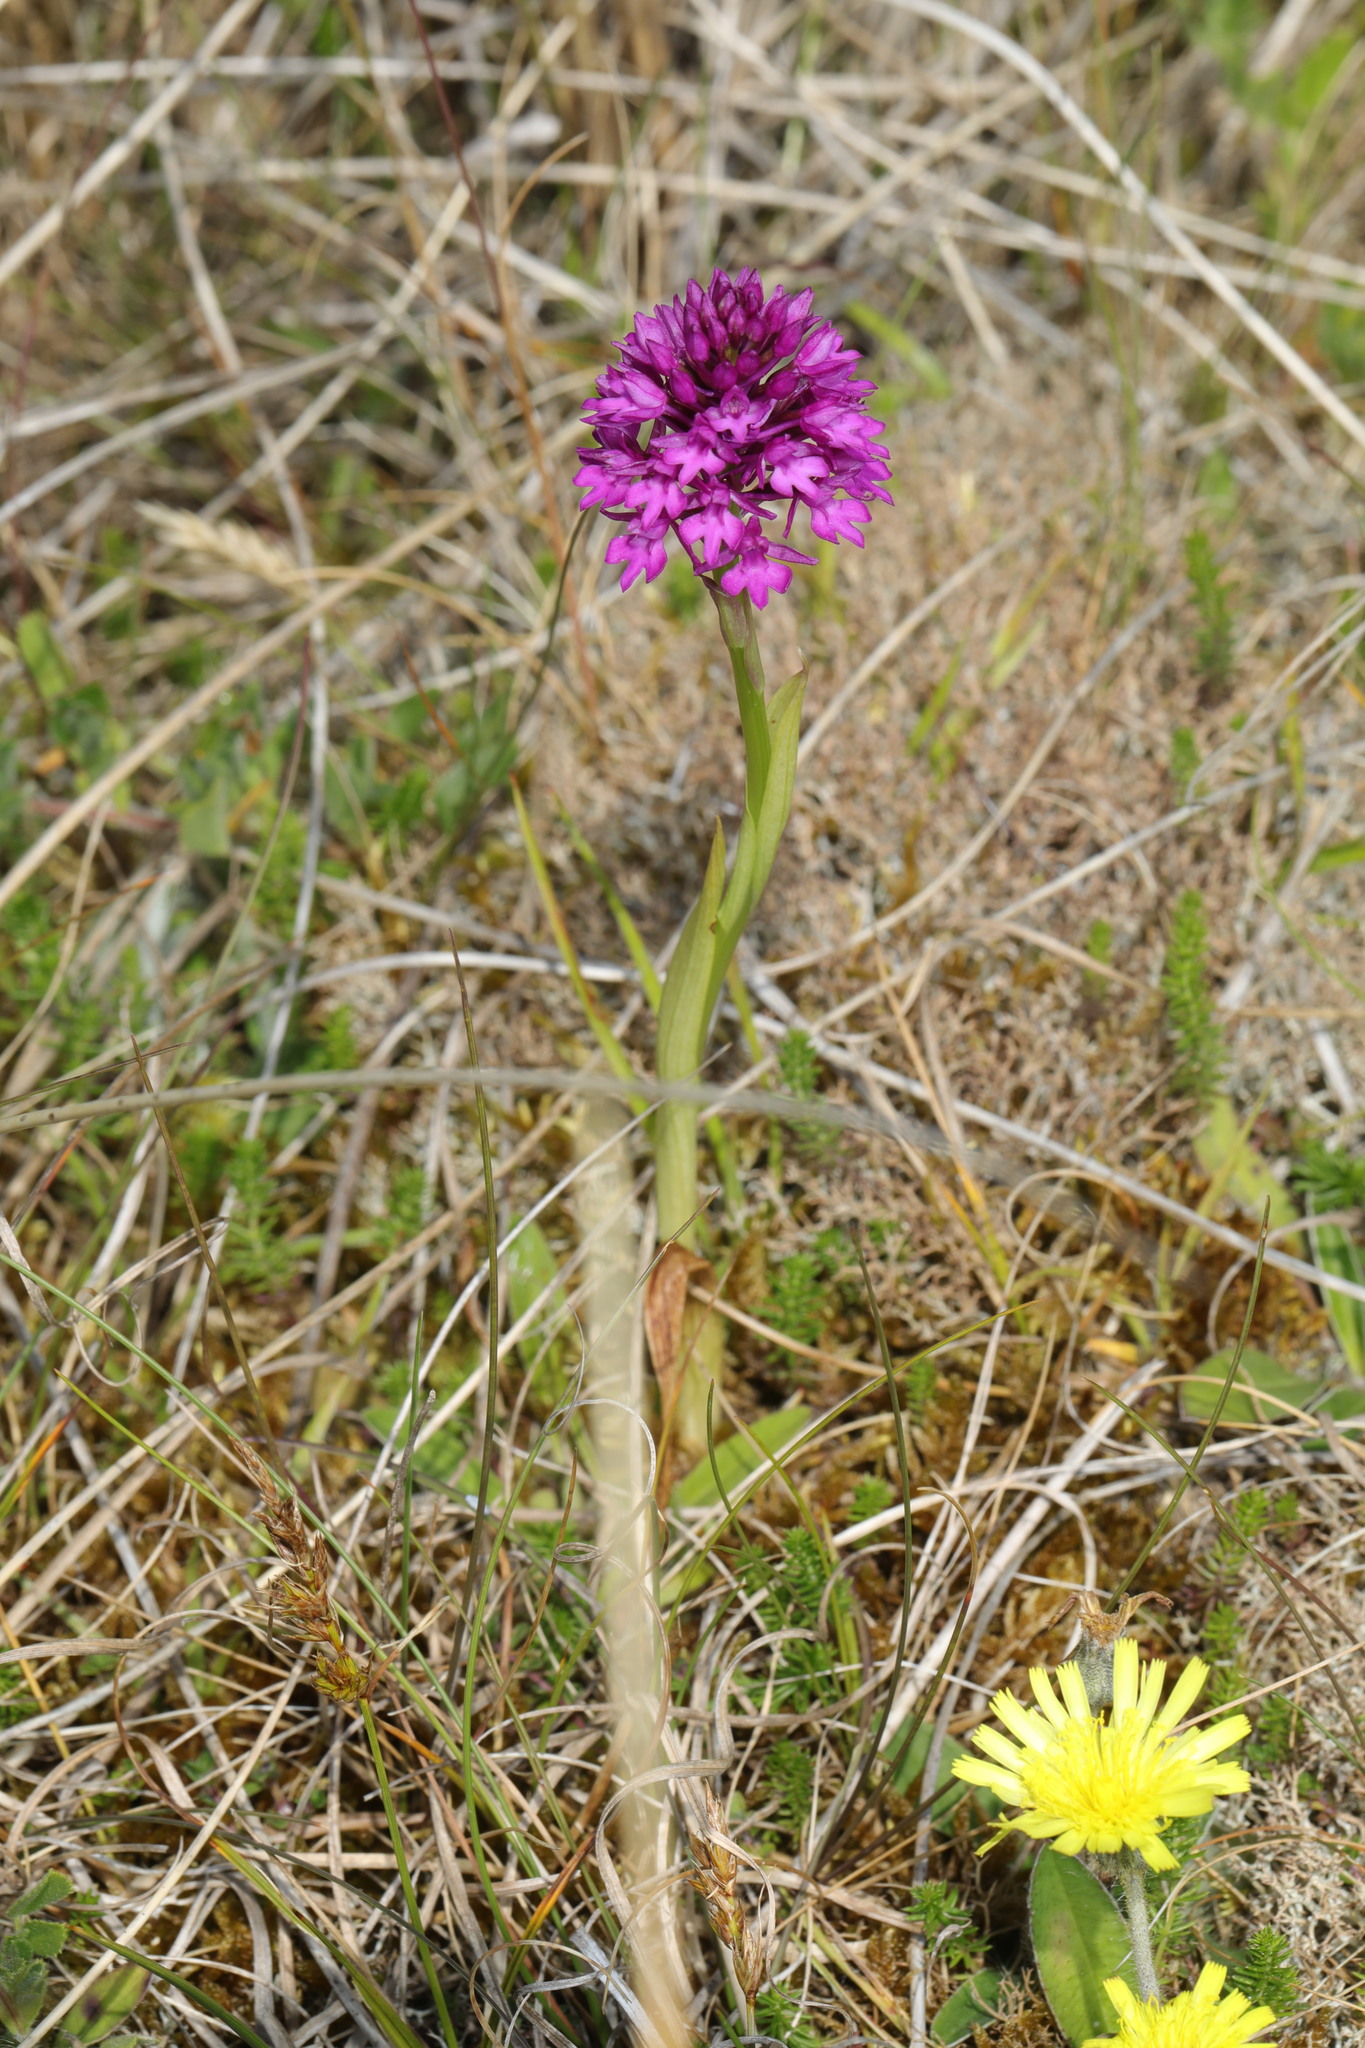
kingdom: Plantae
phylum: Tracheophyta
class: Liliopsida
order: Asparagales
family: Orchidaceae
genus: Anacamptis
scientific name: Anacamptis pyramidalis
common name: Pyramidal orchid
